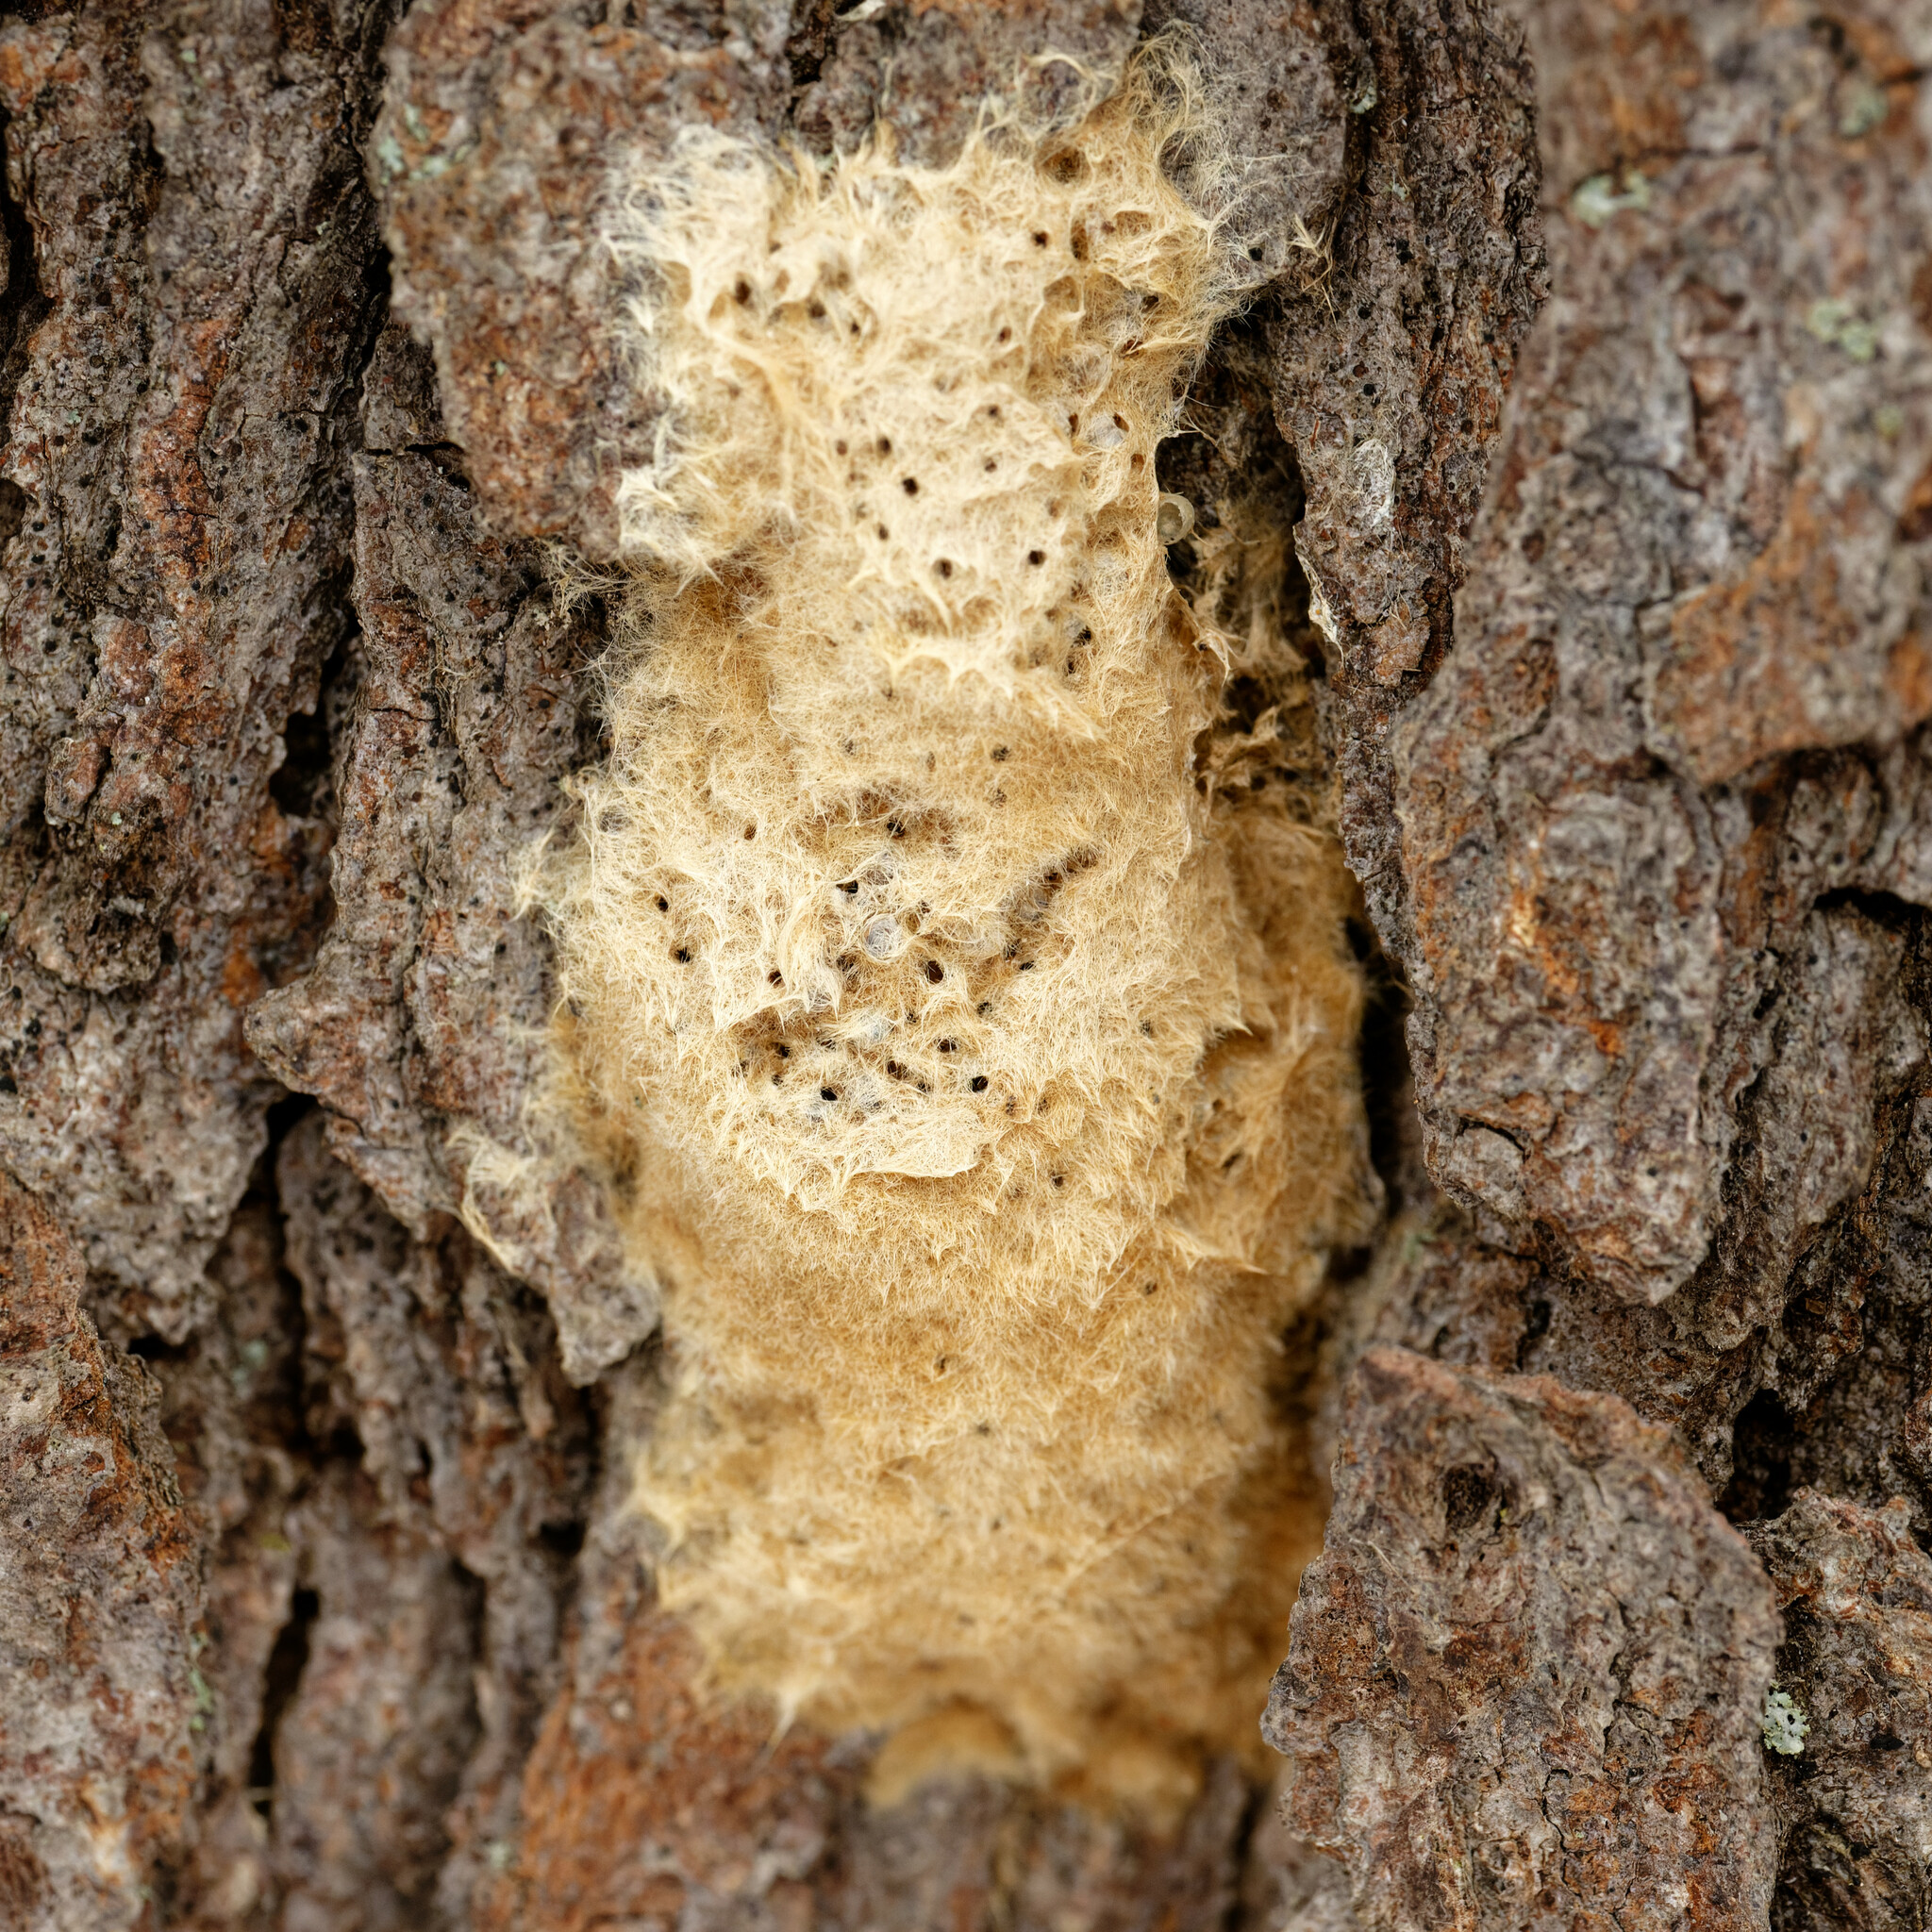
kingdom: Animalia
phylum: Arthropoda
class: Insecta
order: Lepidoptera
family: Erebidae
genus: Lymantria
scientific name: Lymantria dispar
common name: Gypsy moth
